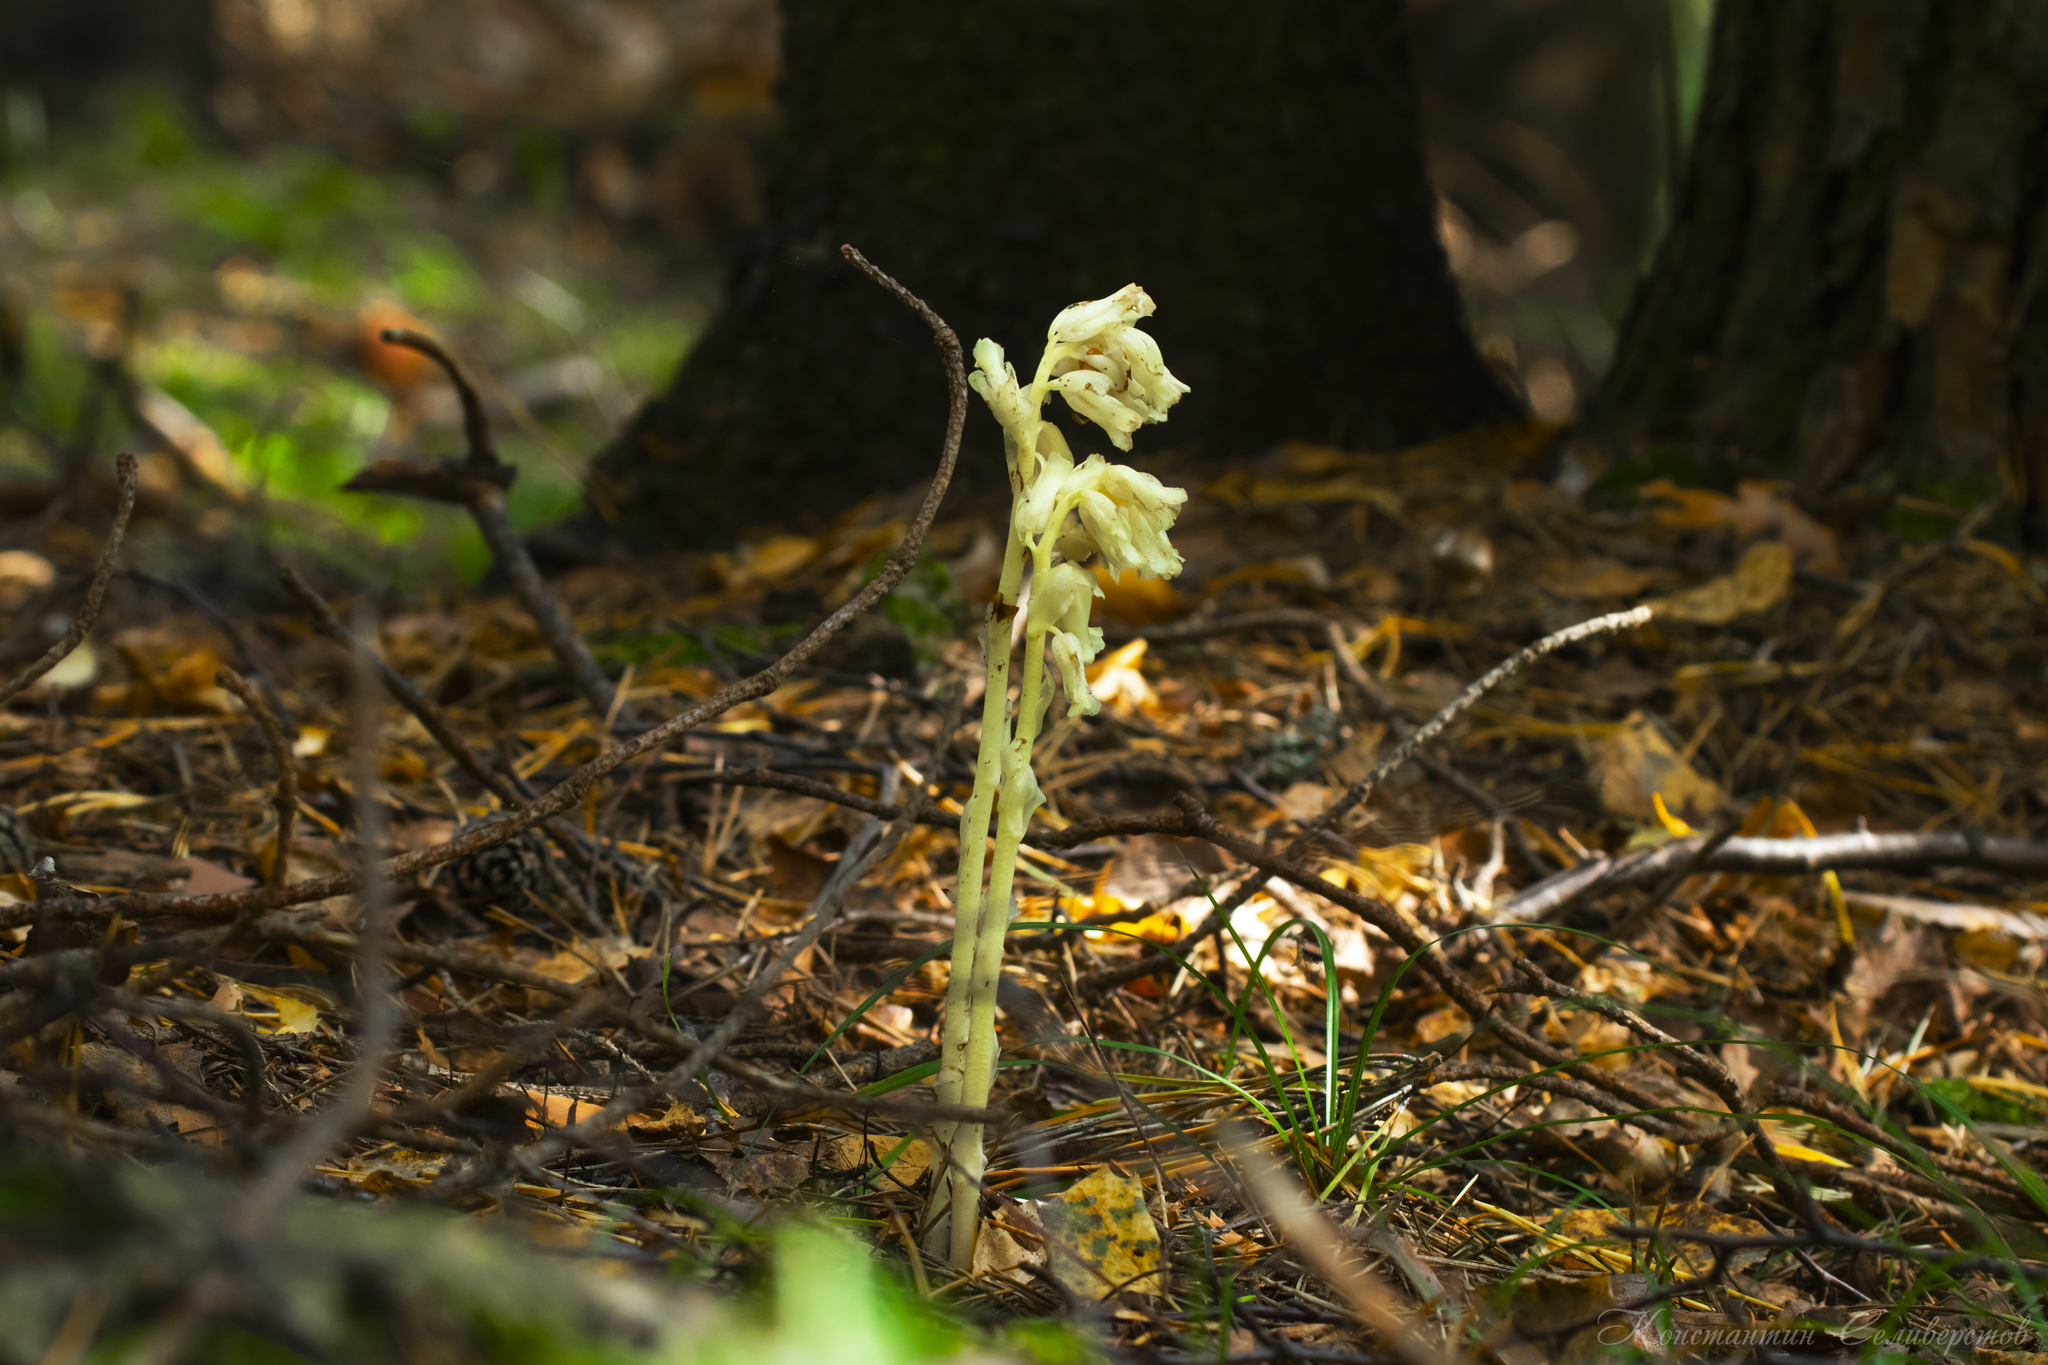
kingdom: Plantae
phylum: Tracheophyta
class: Magnoliopsida
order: Ericales
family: Ericaceae
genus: Hypopitys
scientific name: Hypopitys monotropa
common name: Yellow bird's-nest
